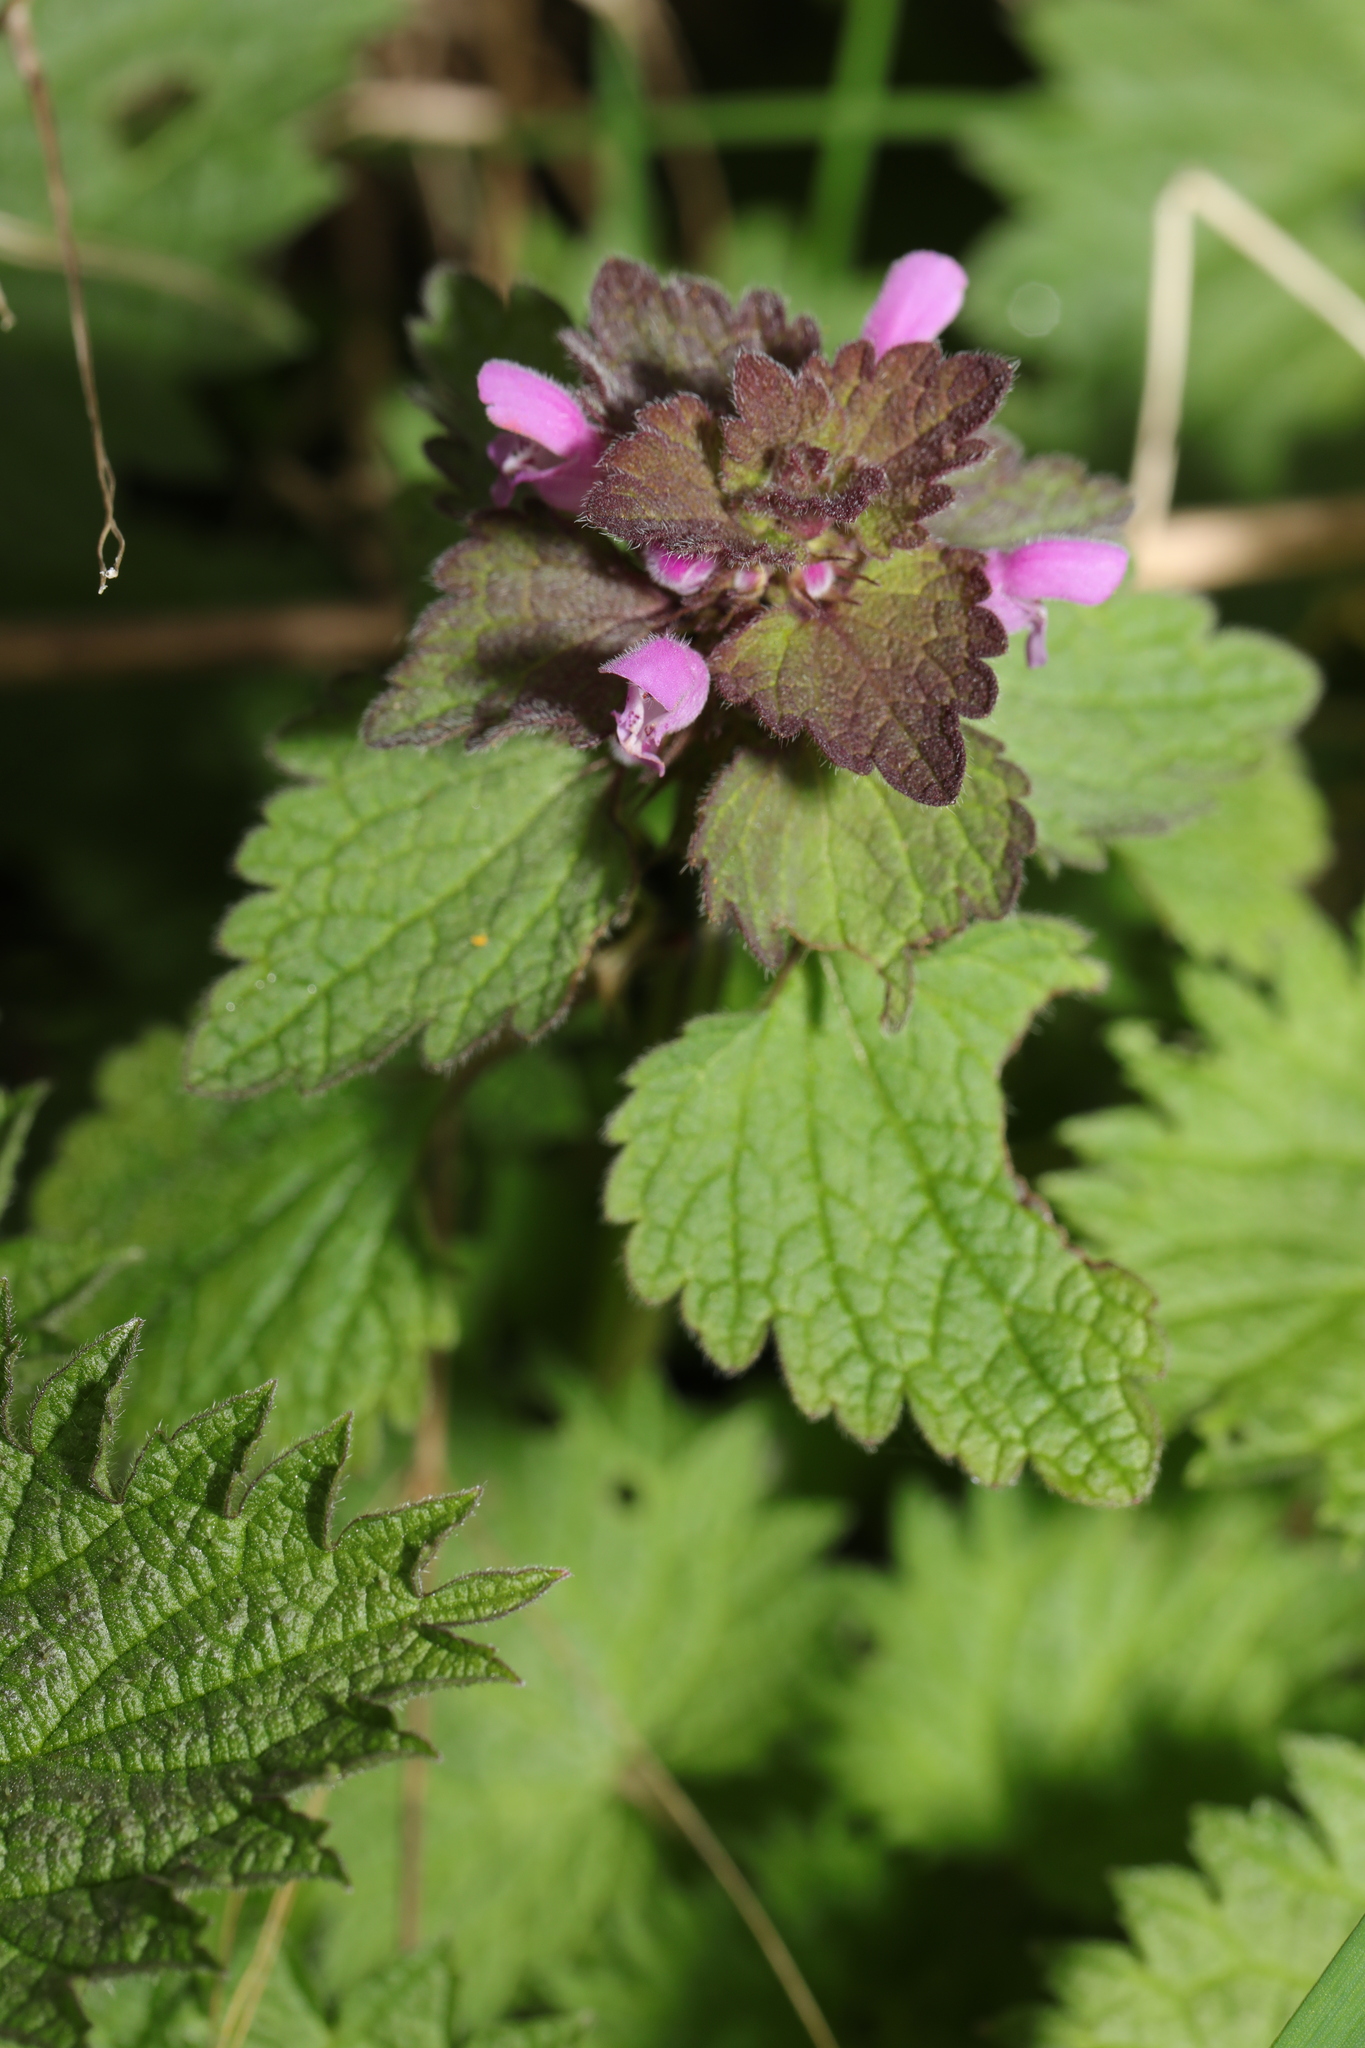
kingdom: Plantae
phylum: Tracheophyta
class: Magnoliopsida
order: Lamiales
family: Lamiaceae
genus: Lamium
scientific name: Lamium purpureum
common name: Red dead-nettle
